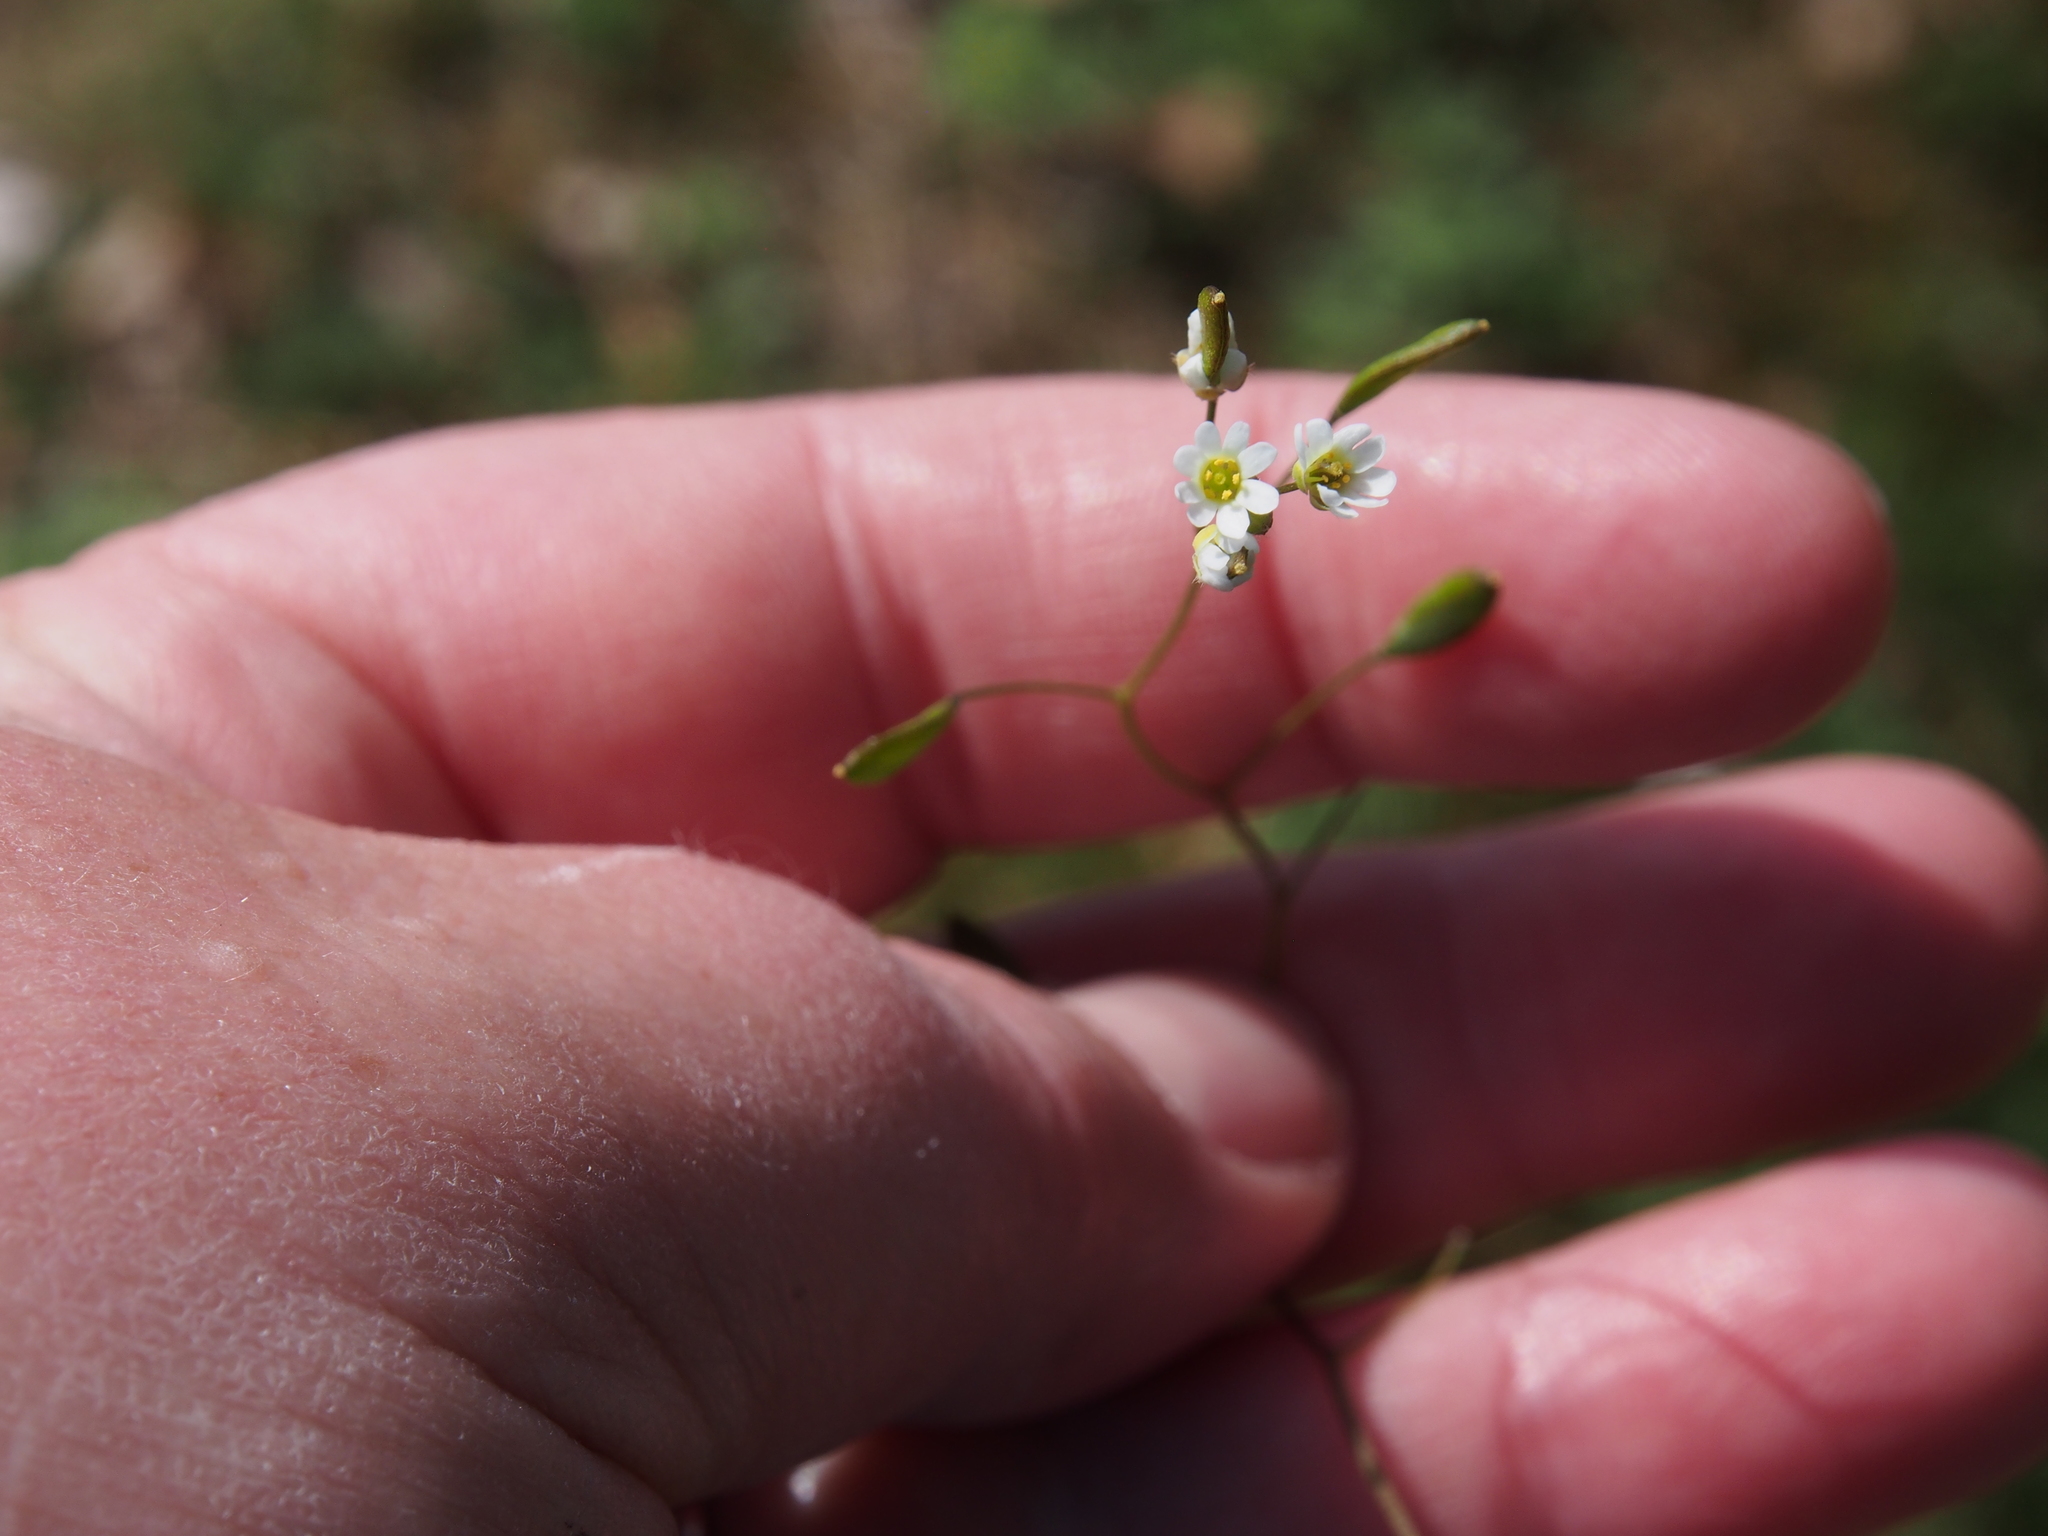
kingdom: Plantae
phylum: Tracheophyta
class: Magnoliopsida
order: Brassicales
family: Brassicaceae
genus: Draba
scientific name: Draba verna
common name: Spring draba
